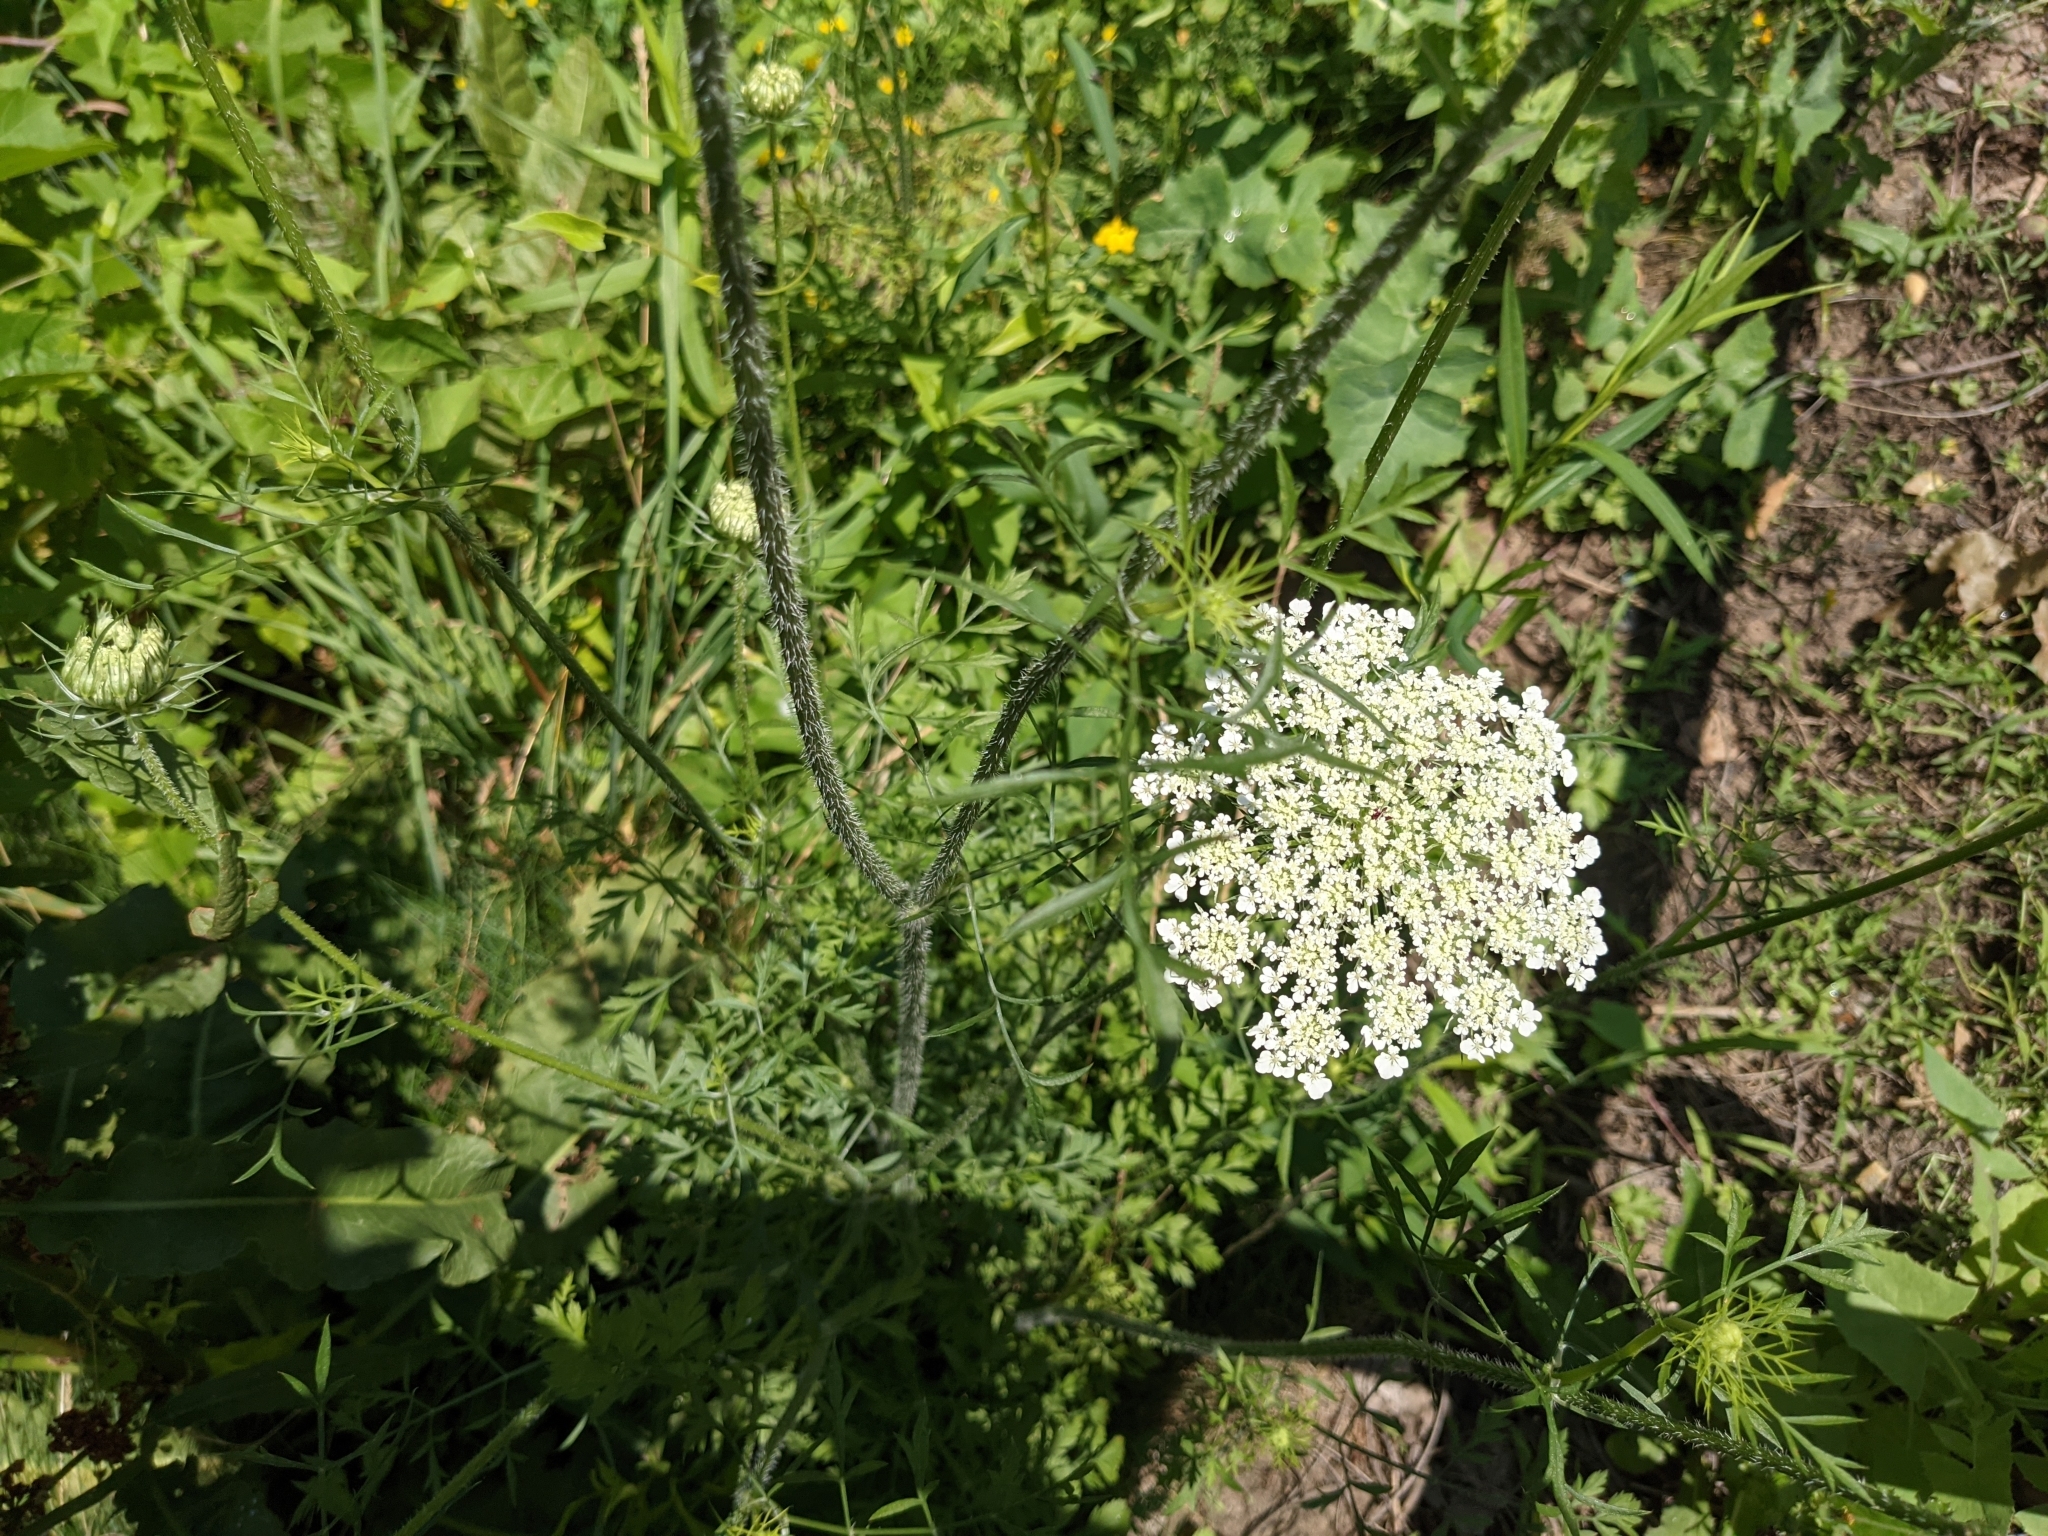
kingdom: Plantae
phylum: Tracheophyta
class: Magnoliopsida
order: Apiales
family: Apiaceae
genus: Daucus
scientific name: Daucus carota
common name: Wild carrot
